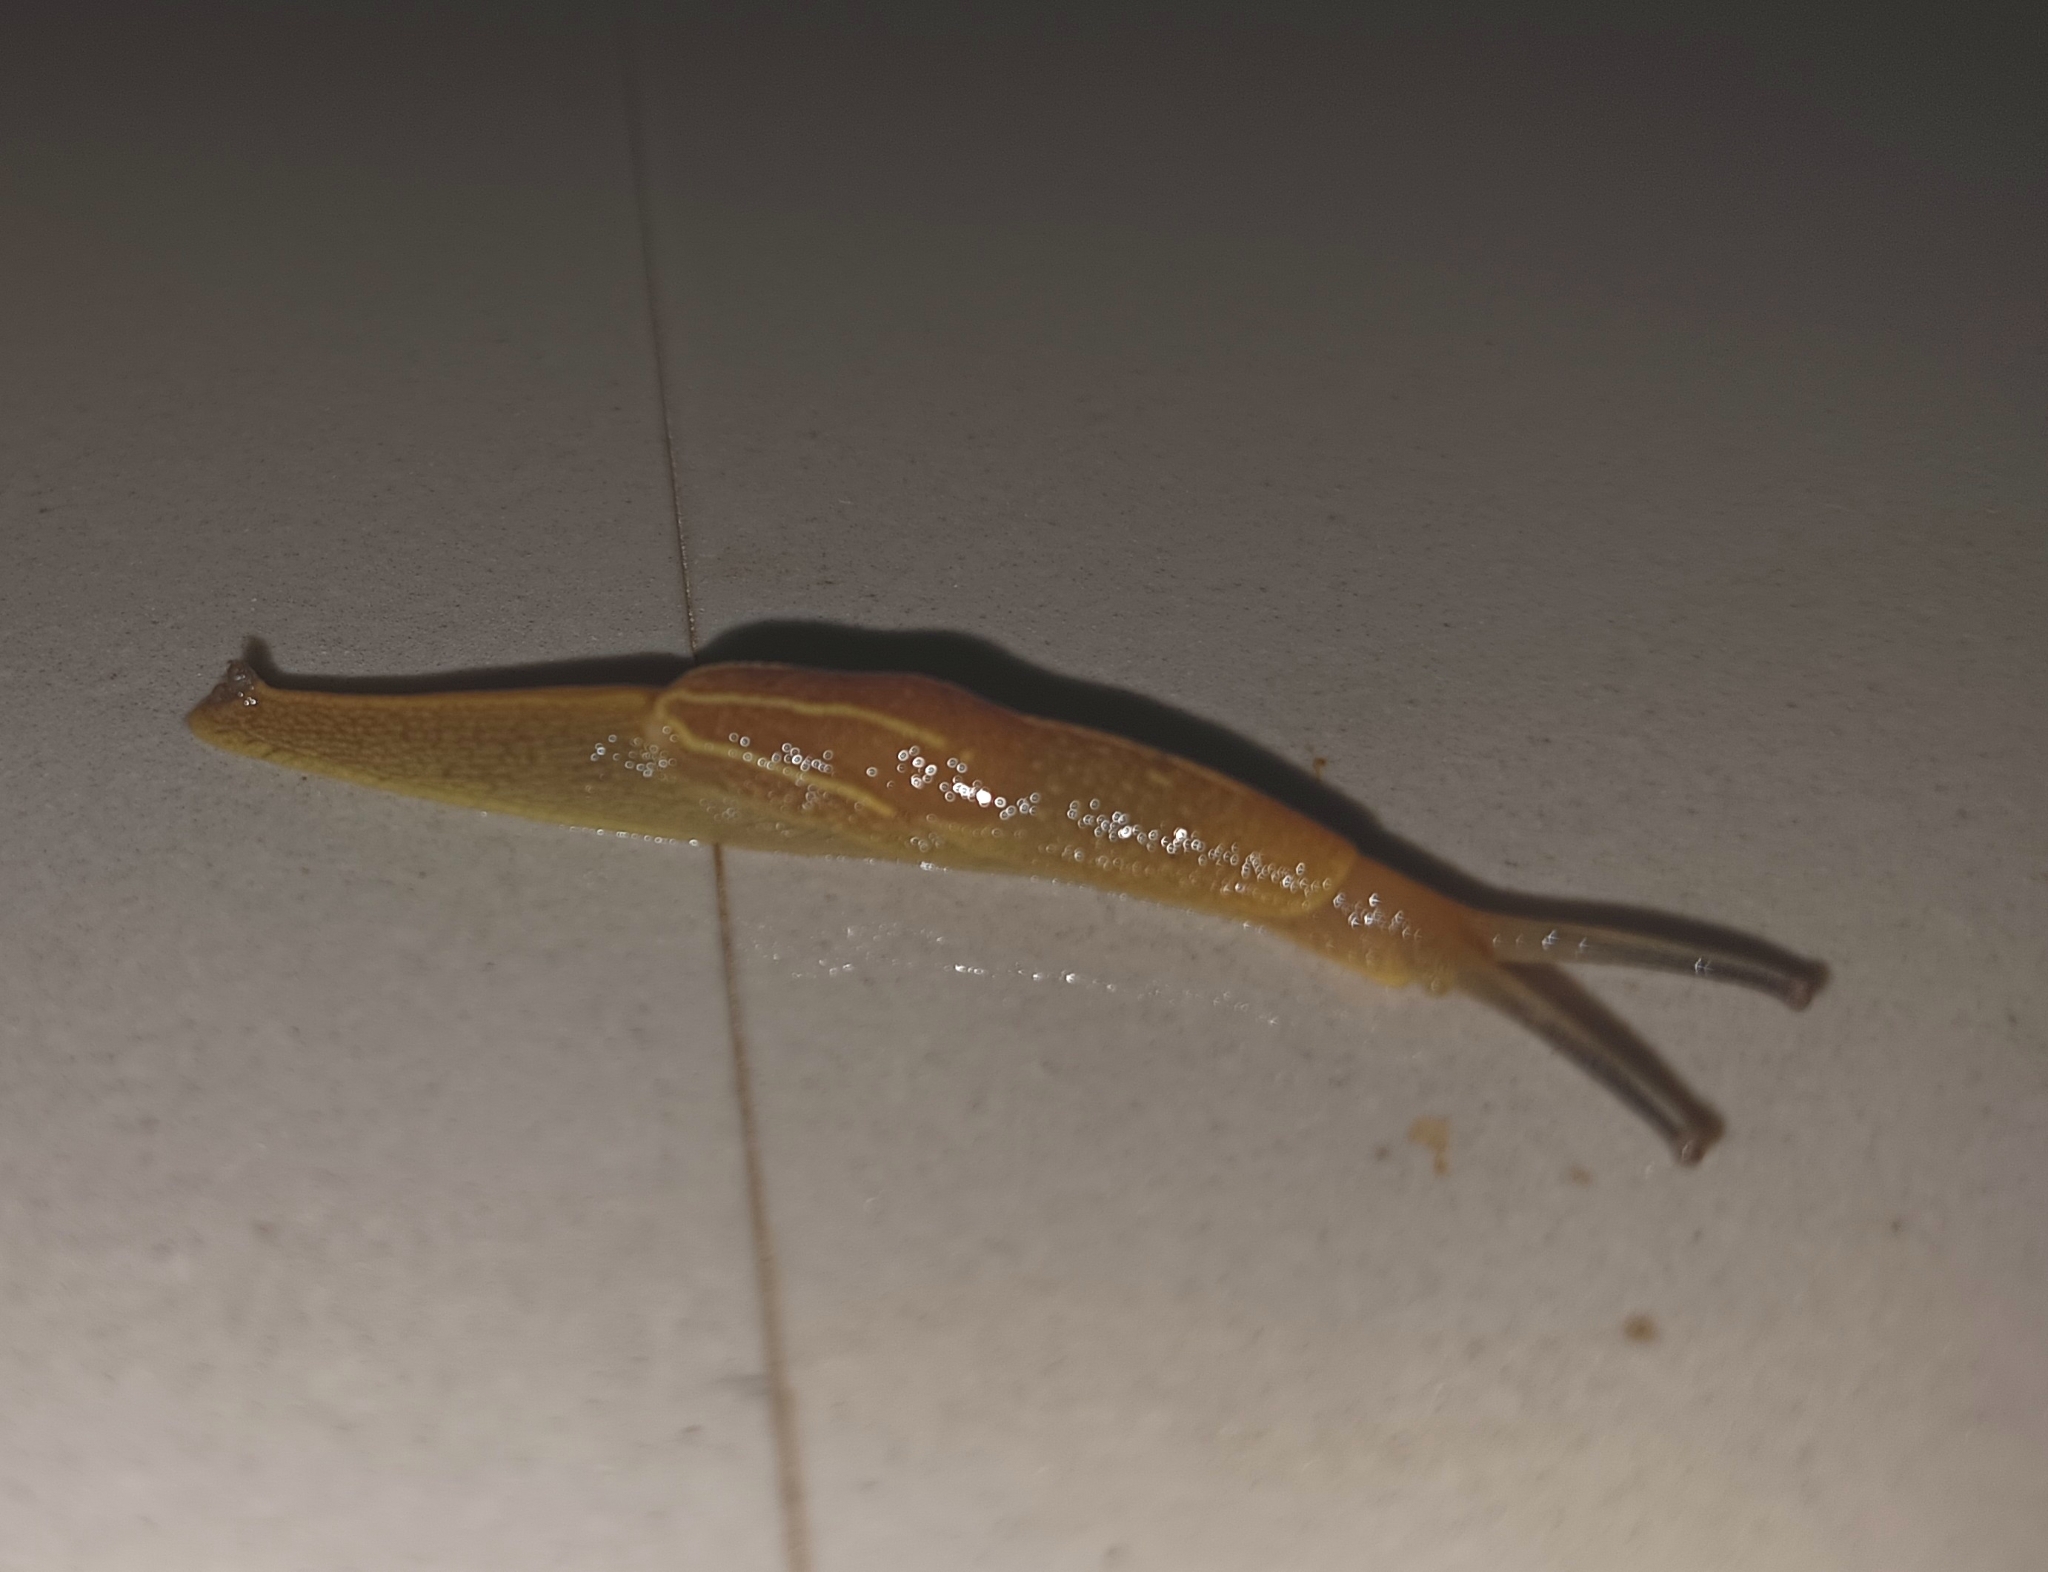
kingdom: Animalia
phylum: Mollusca
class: Gastropoda
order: Stylommatophora
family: Ariophantidae
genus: Mariaella
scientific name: Mariaella dussumieri
